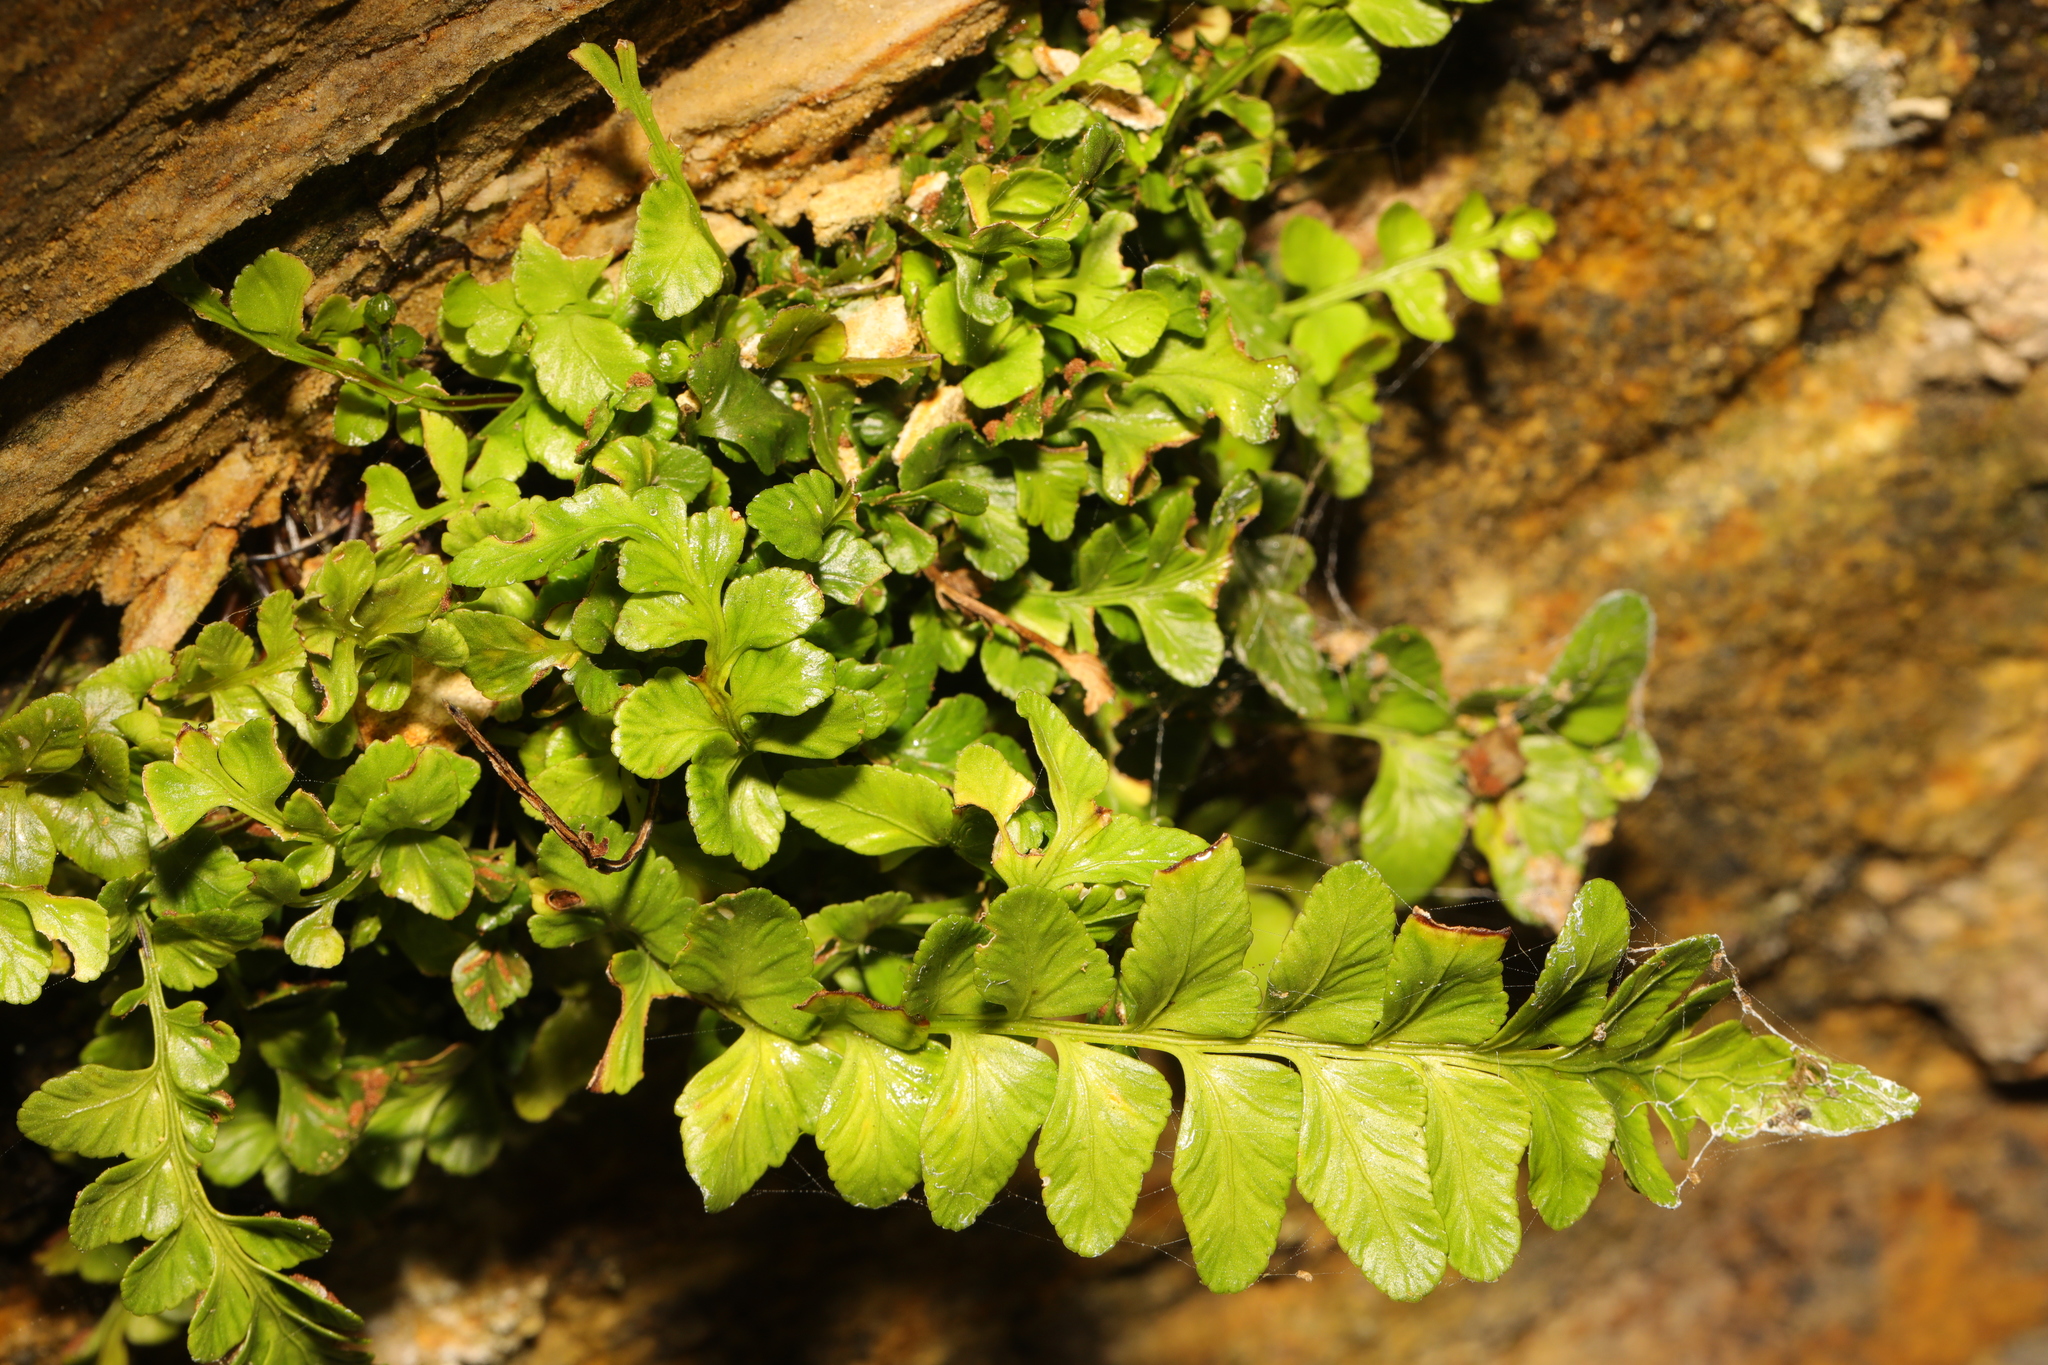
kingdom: Plantae
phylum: Tracheophyta
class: Polypodiopsida
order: Polypodiales
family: Aspleniaceae
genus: Asplenium
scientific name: Asplenium marinum
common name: Sea spleenwort
